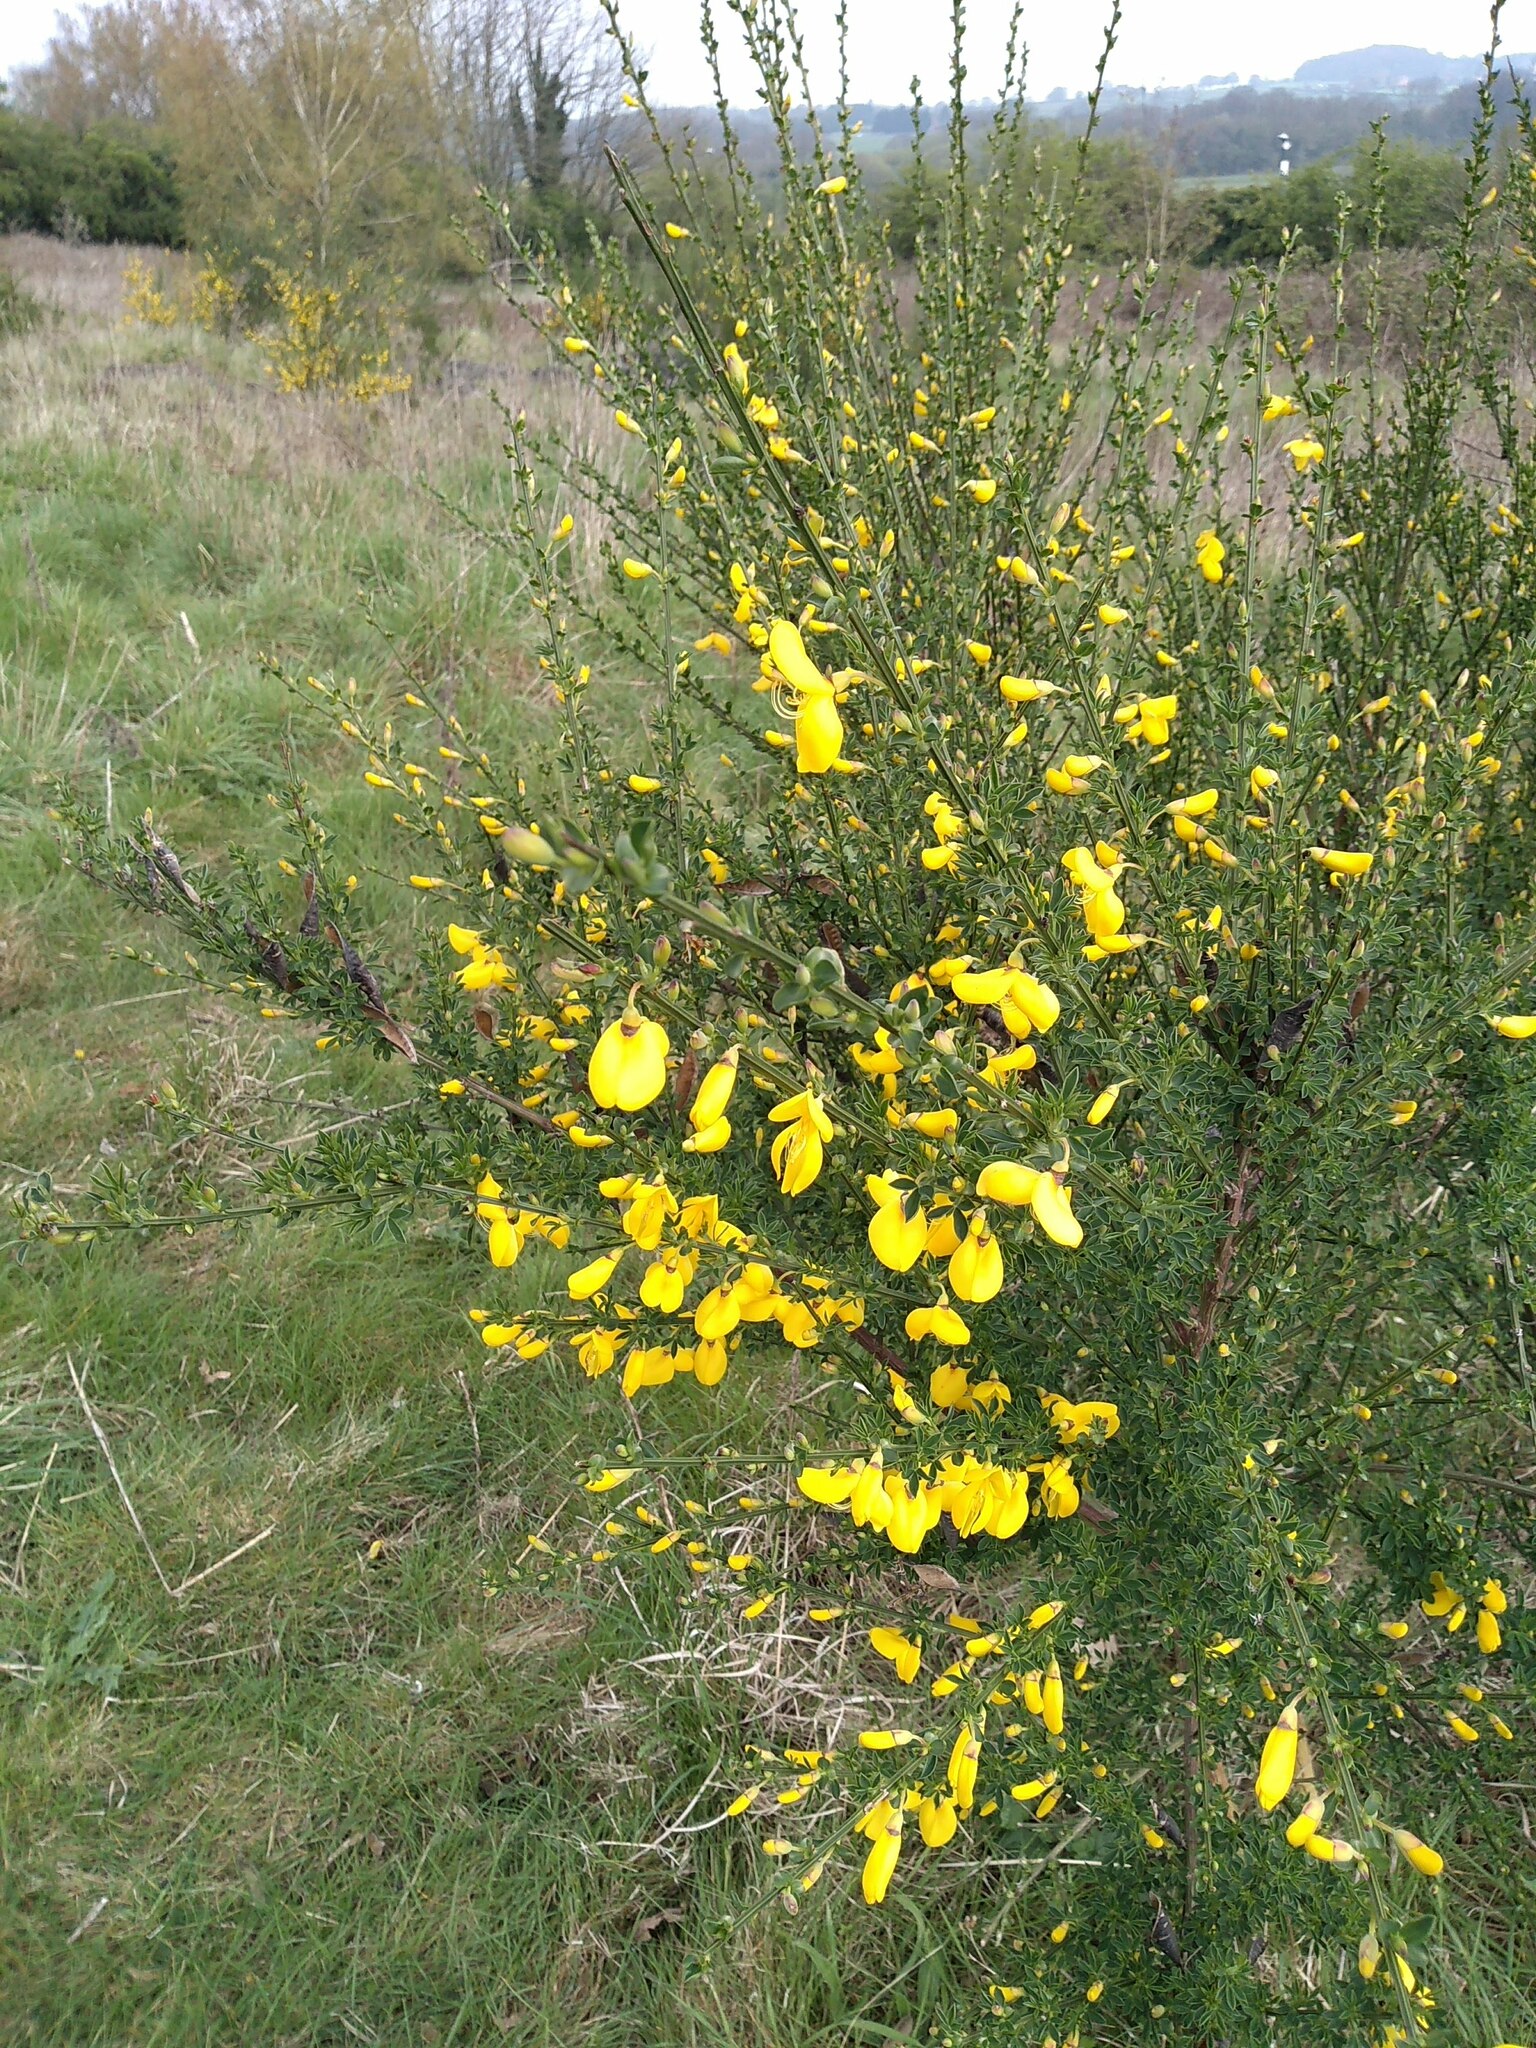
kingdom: Plantae
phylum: Tracheophyta
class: Magnoliopsida
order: Fabales
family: Fabaceae
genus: Cytisus
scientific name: Cytisus scoparius
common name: Scotch broom
